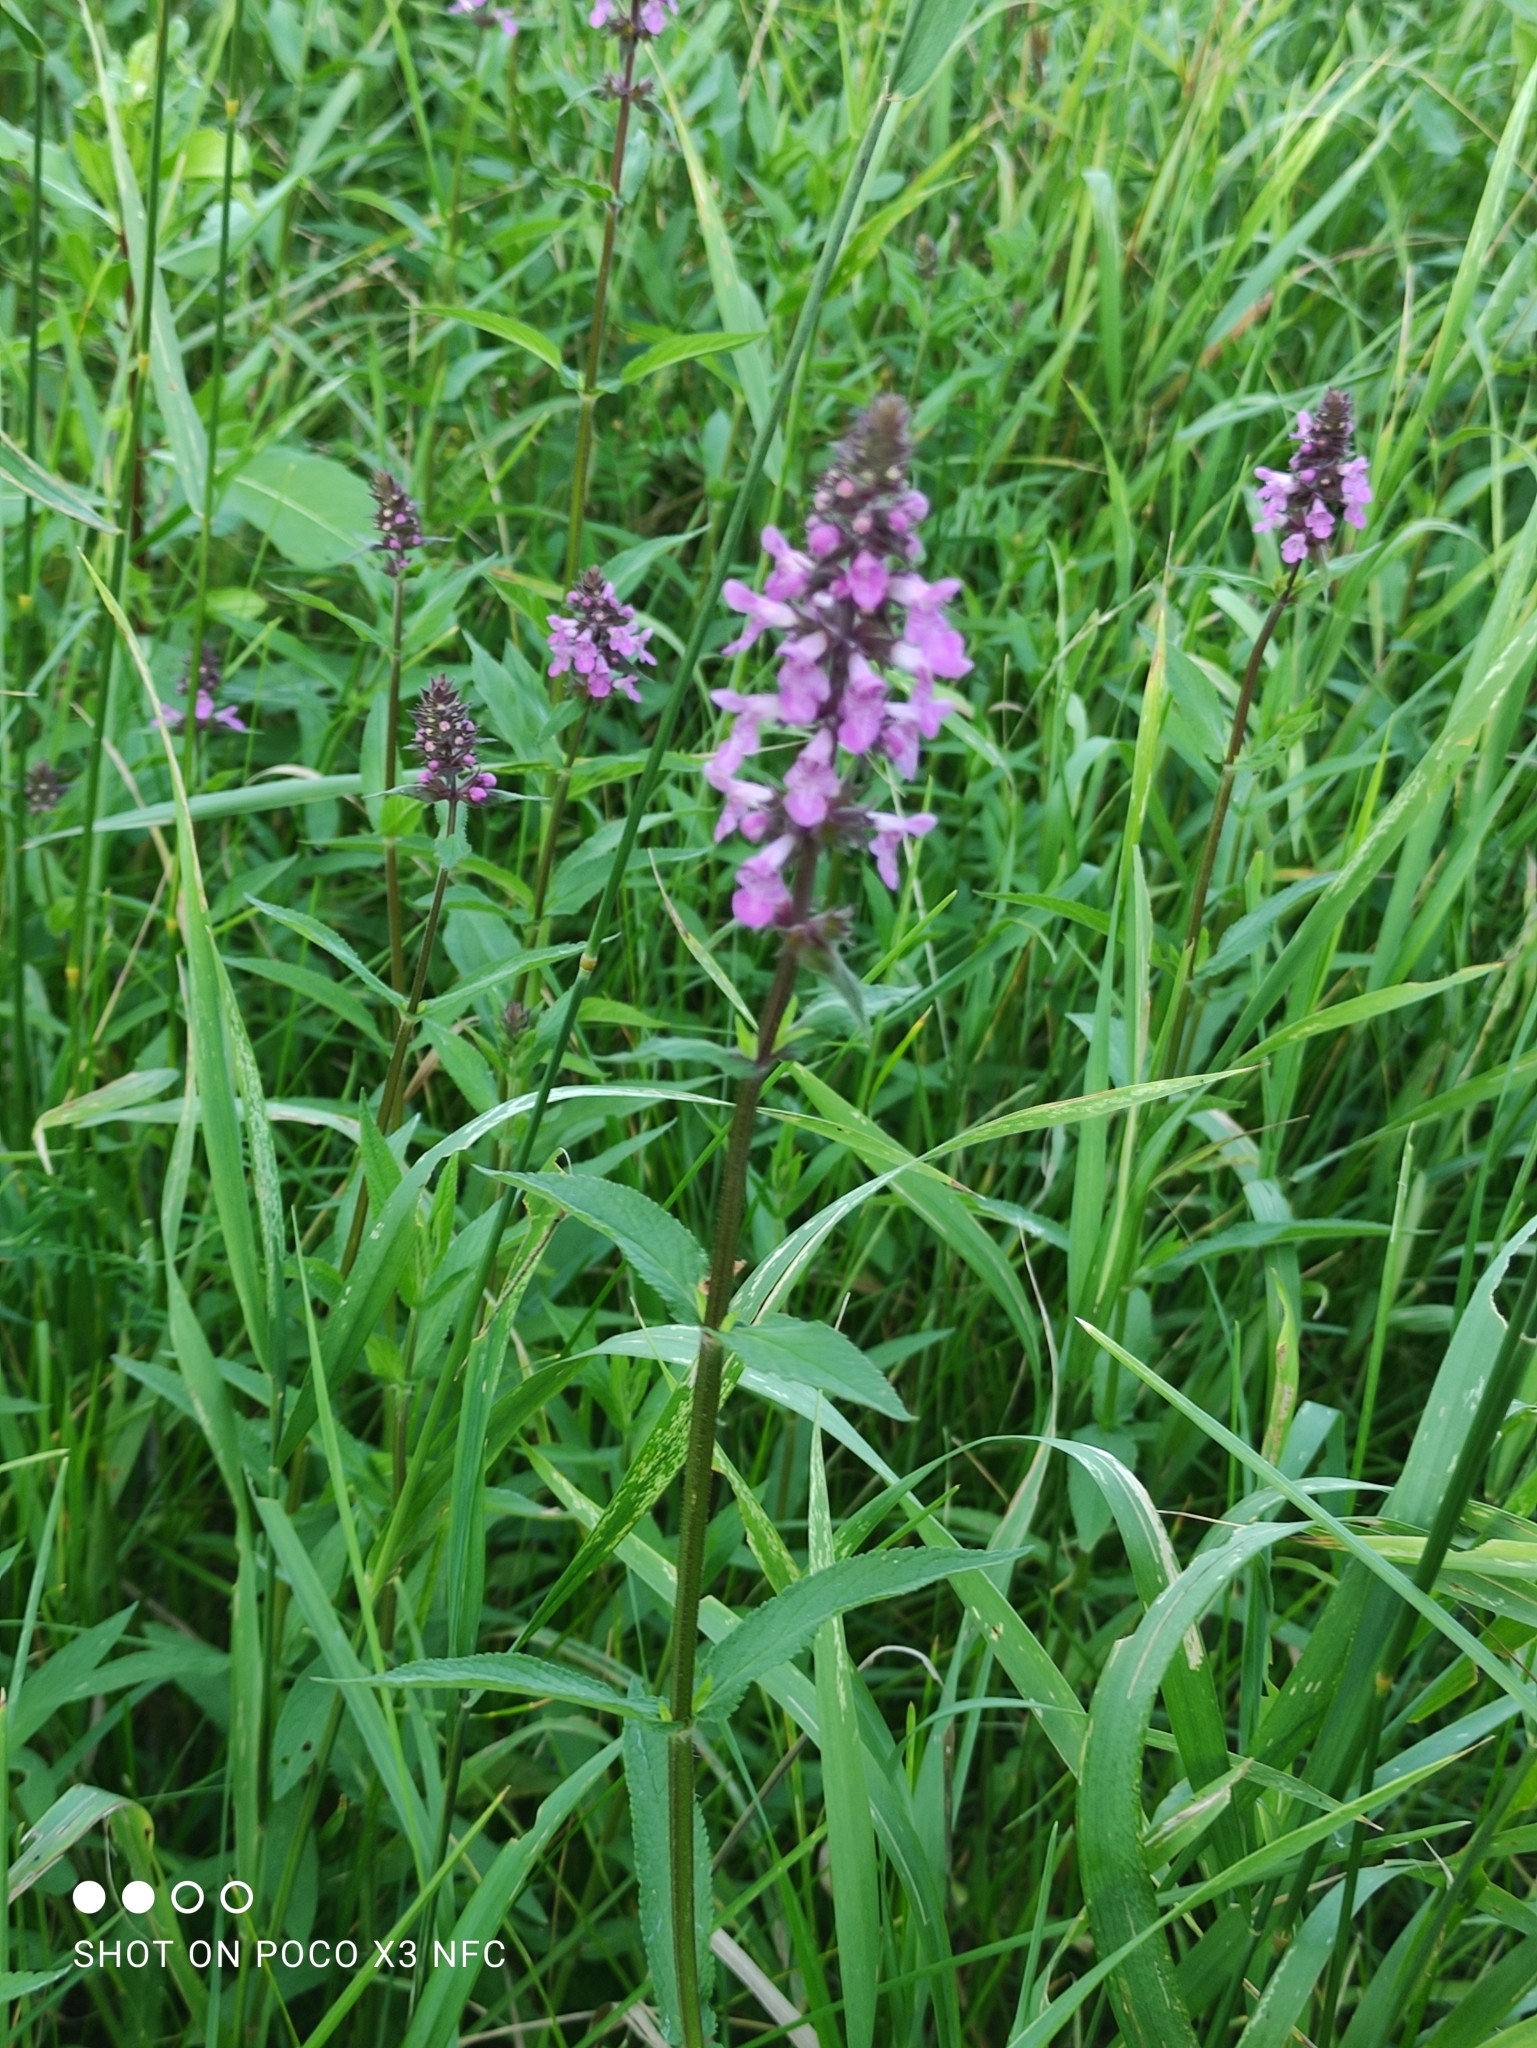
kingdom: Plantae
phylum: Tracheophyta
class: Magnoliopsida
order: Lamiales
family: Lamiaceae
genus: Stachys
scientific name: Stachys palustris
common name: Marsh woundwort
